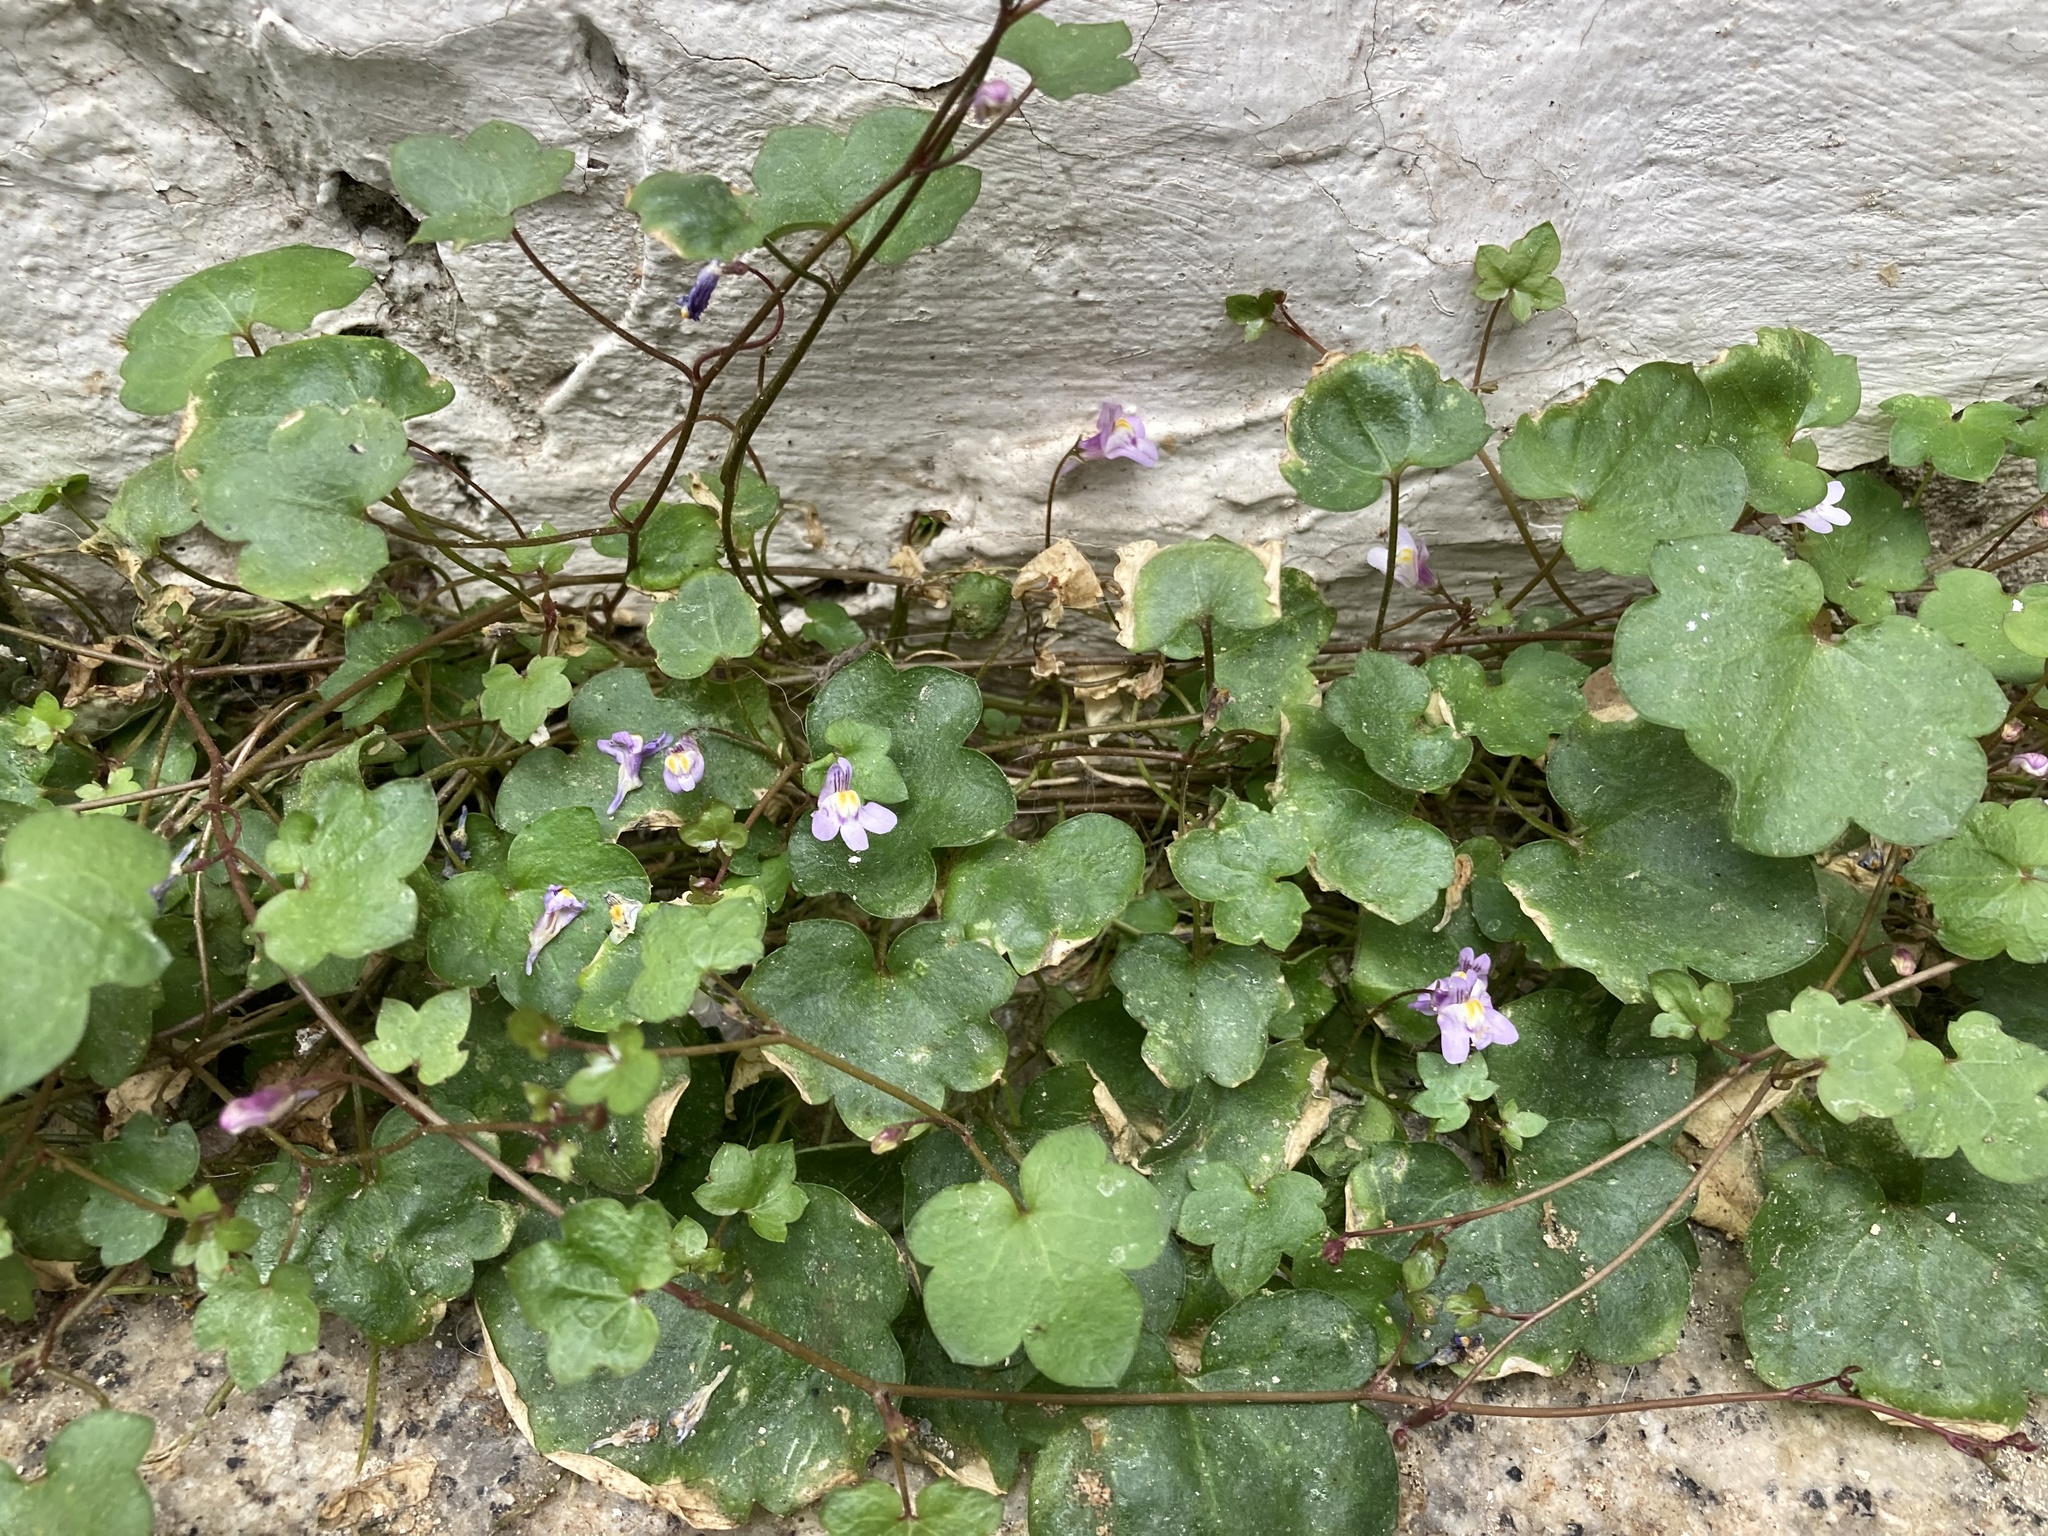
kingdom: Plantae
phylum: Tracheophyta
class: Magnoliopsida
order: Lamiales
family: Plantaginaceae
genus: Cymbalaria
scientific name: Cymbalaria muralis
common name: Ivy-leaved toadflax
